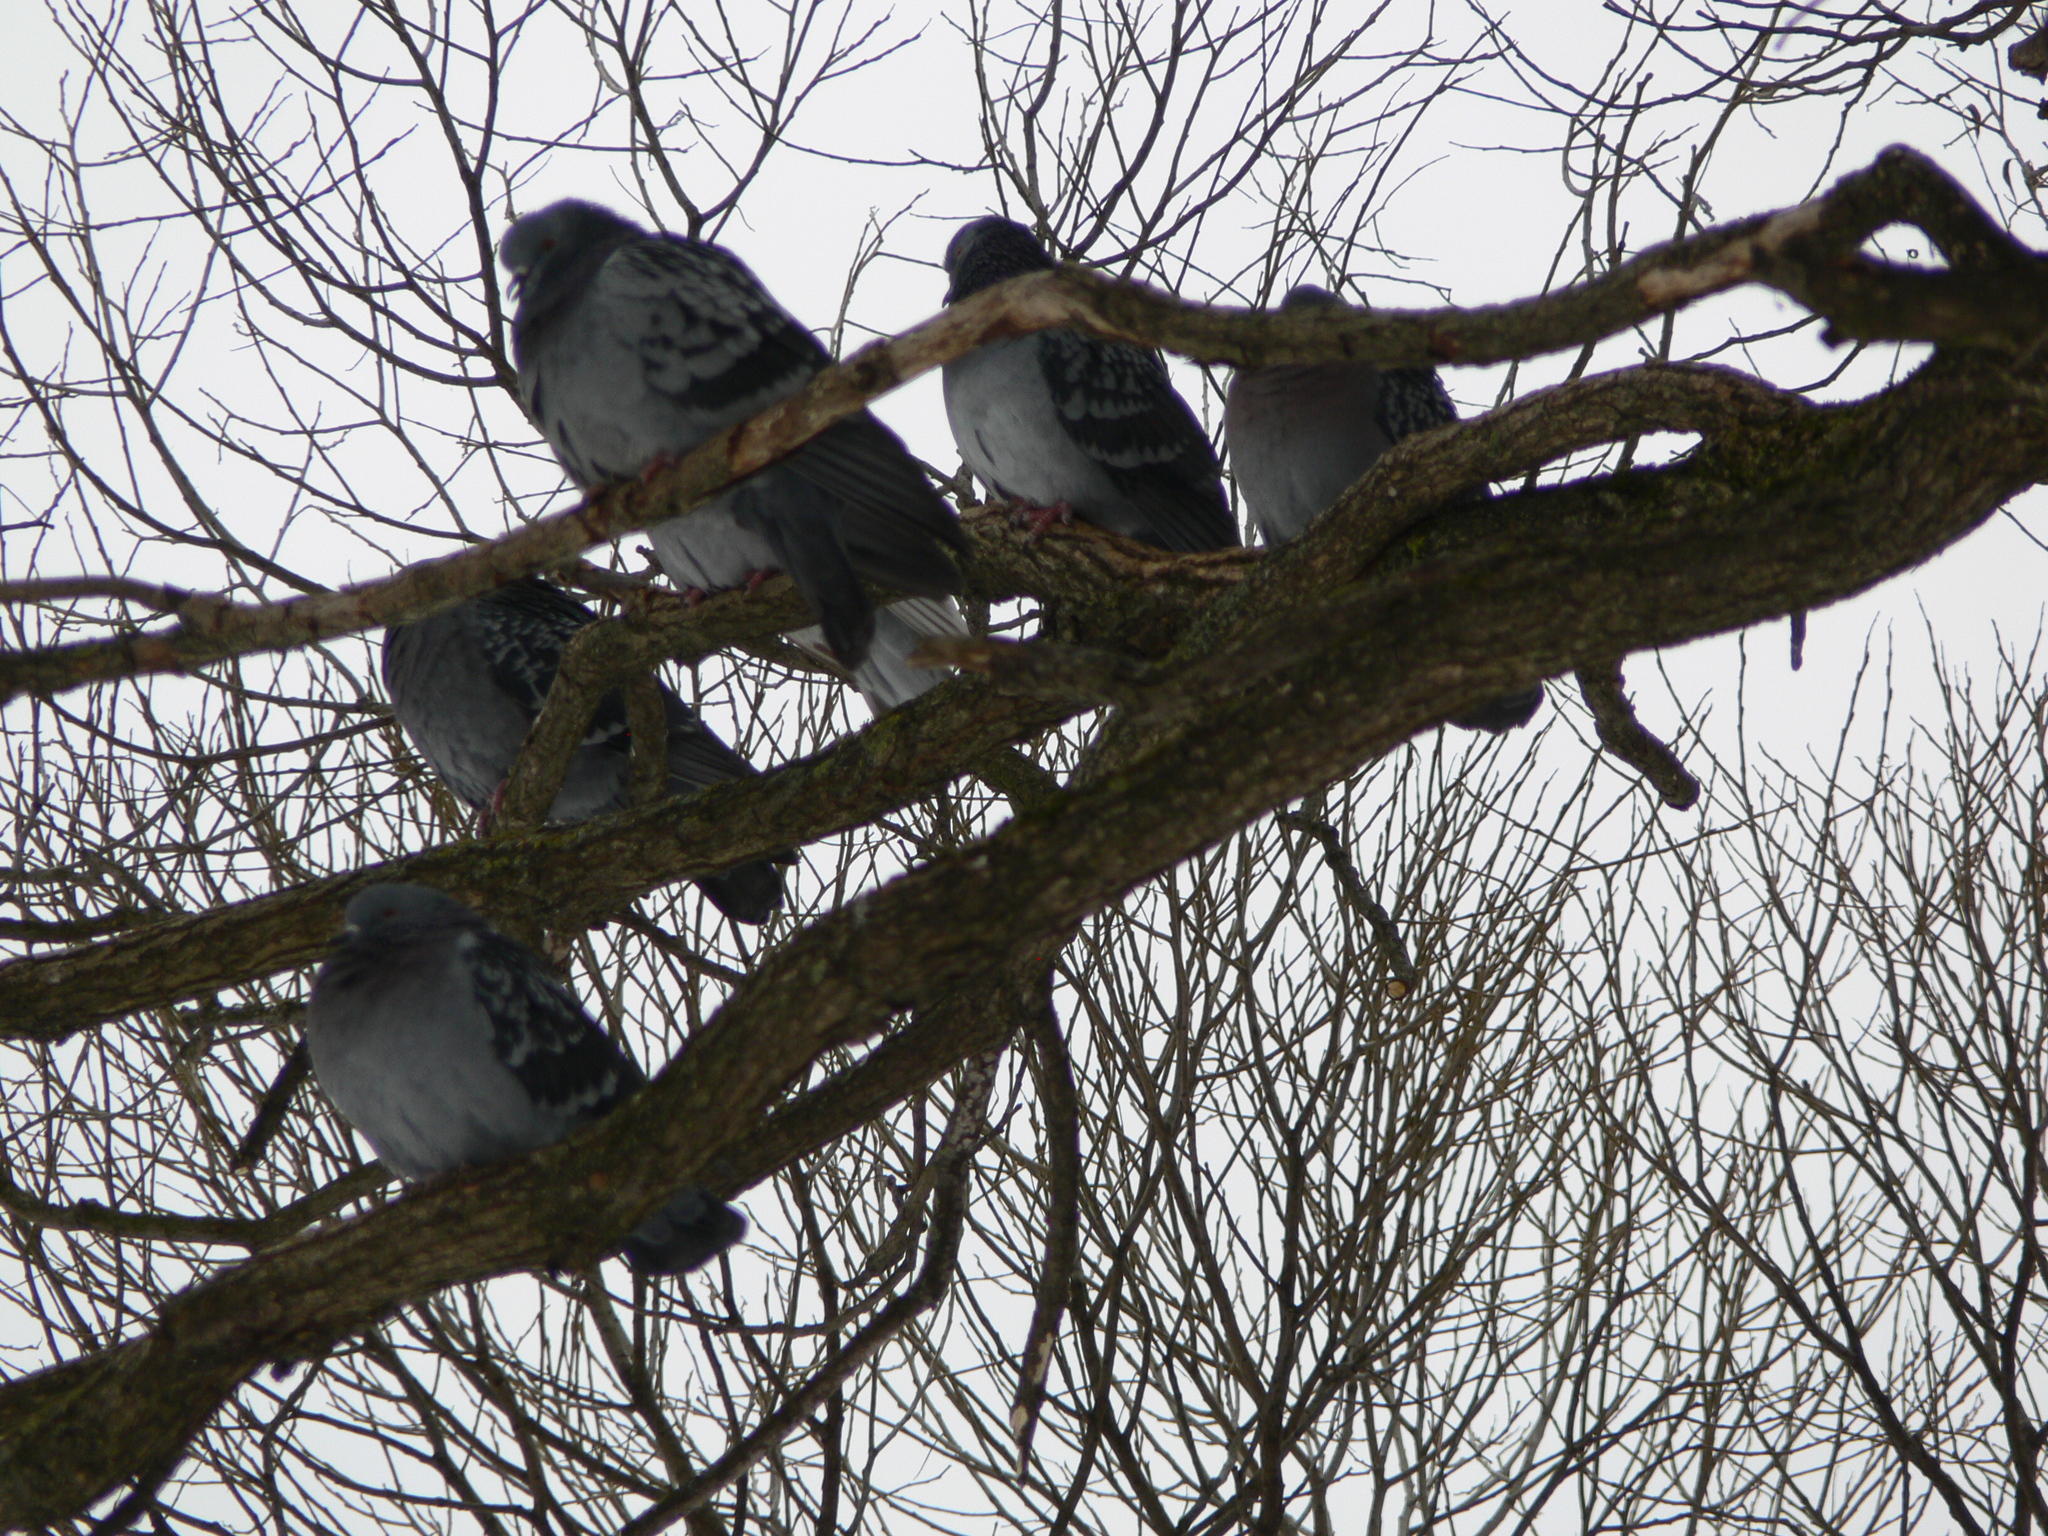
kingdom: Animalia
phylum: Chordata
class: Aves
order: Columbiformes
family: Columbidae
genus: Columba
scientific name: Columba livia
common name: Rock pigeon
